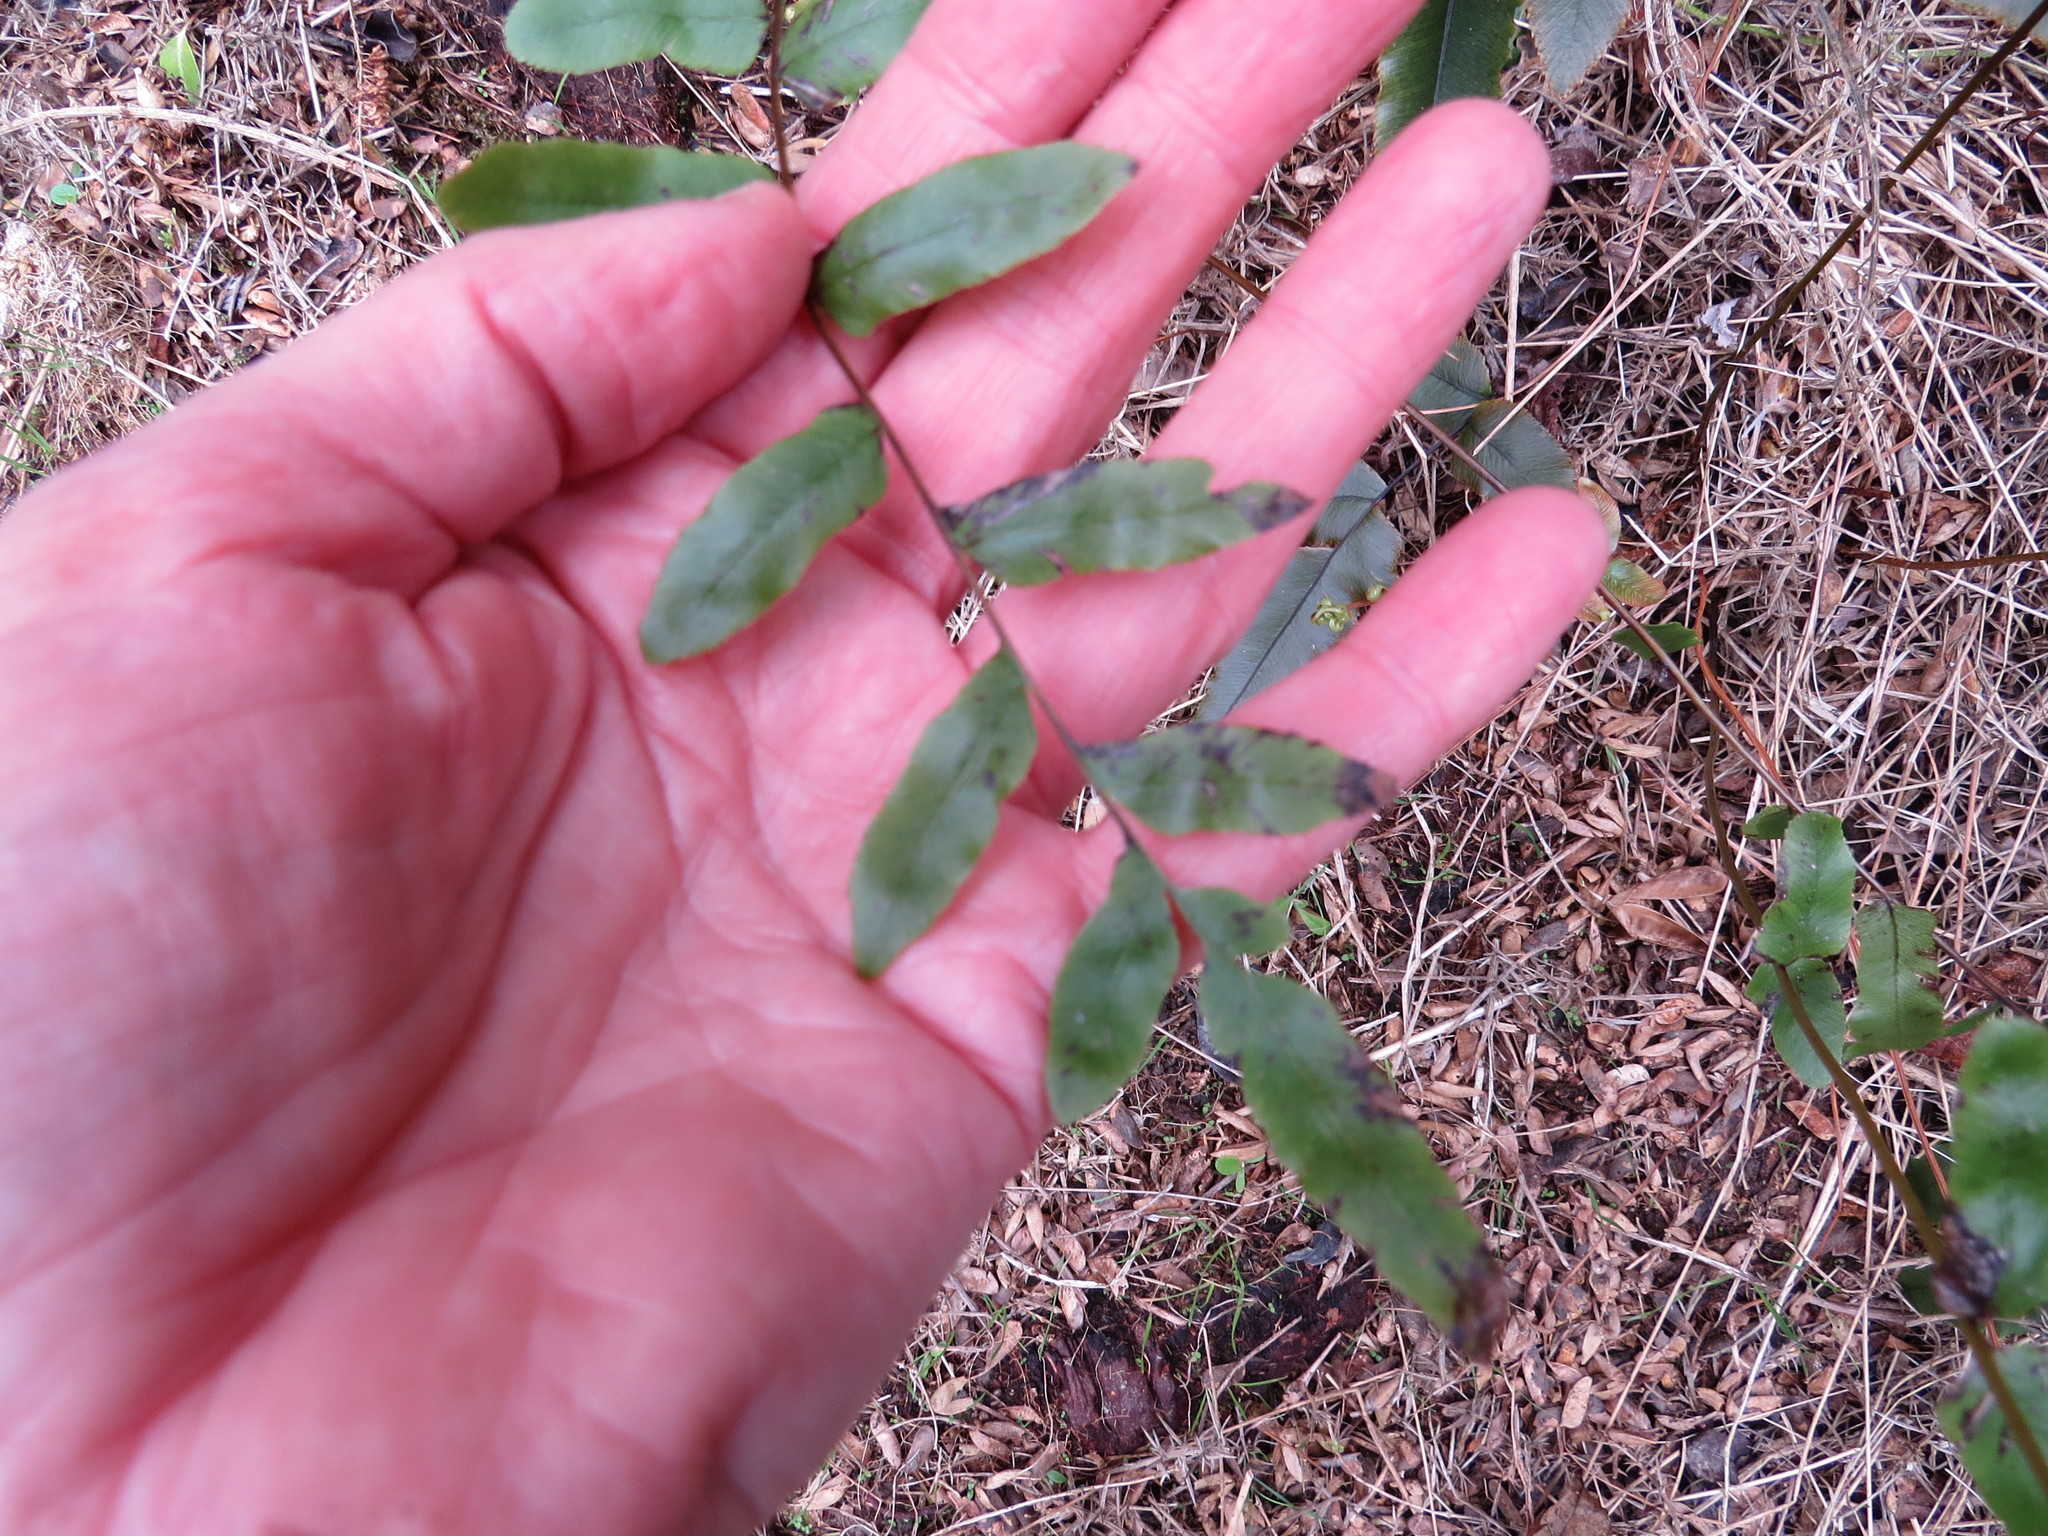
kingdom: Plantae
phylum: Tracheophyta
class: Polypodiopsida
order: Polypodiales
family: Blechnaceae
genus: Parablechnum
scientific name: Parablechnum minus
